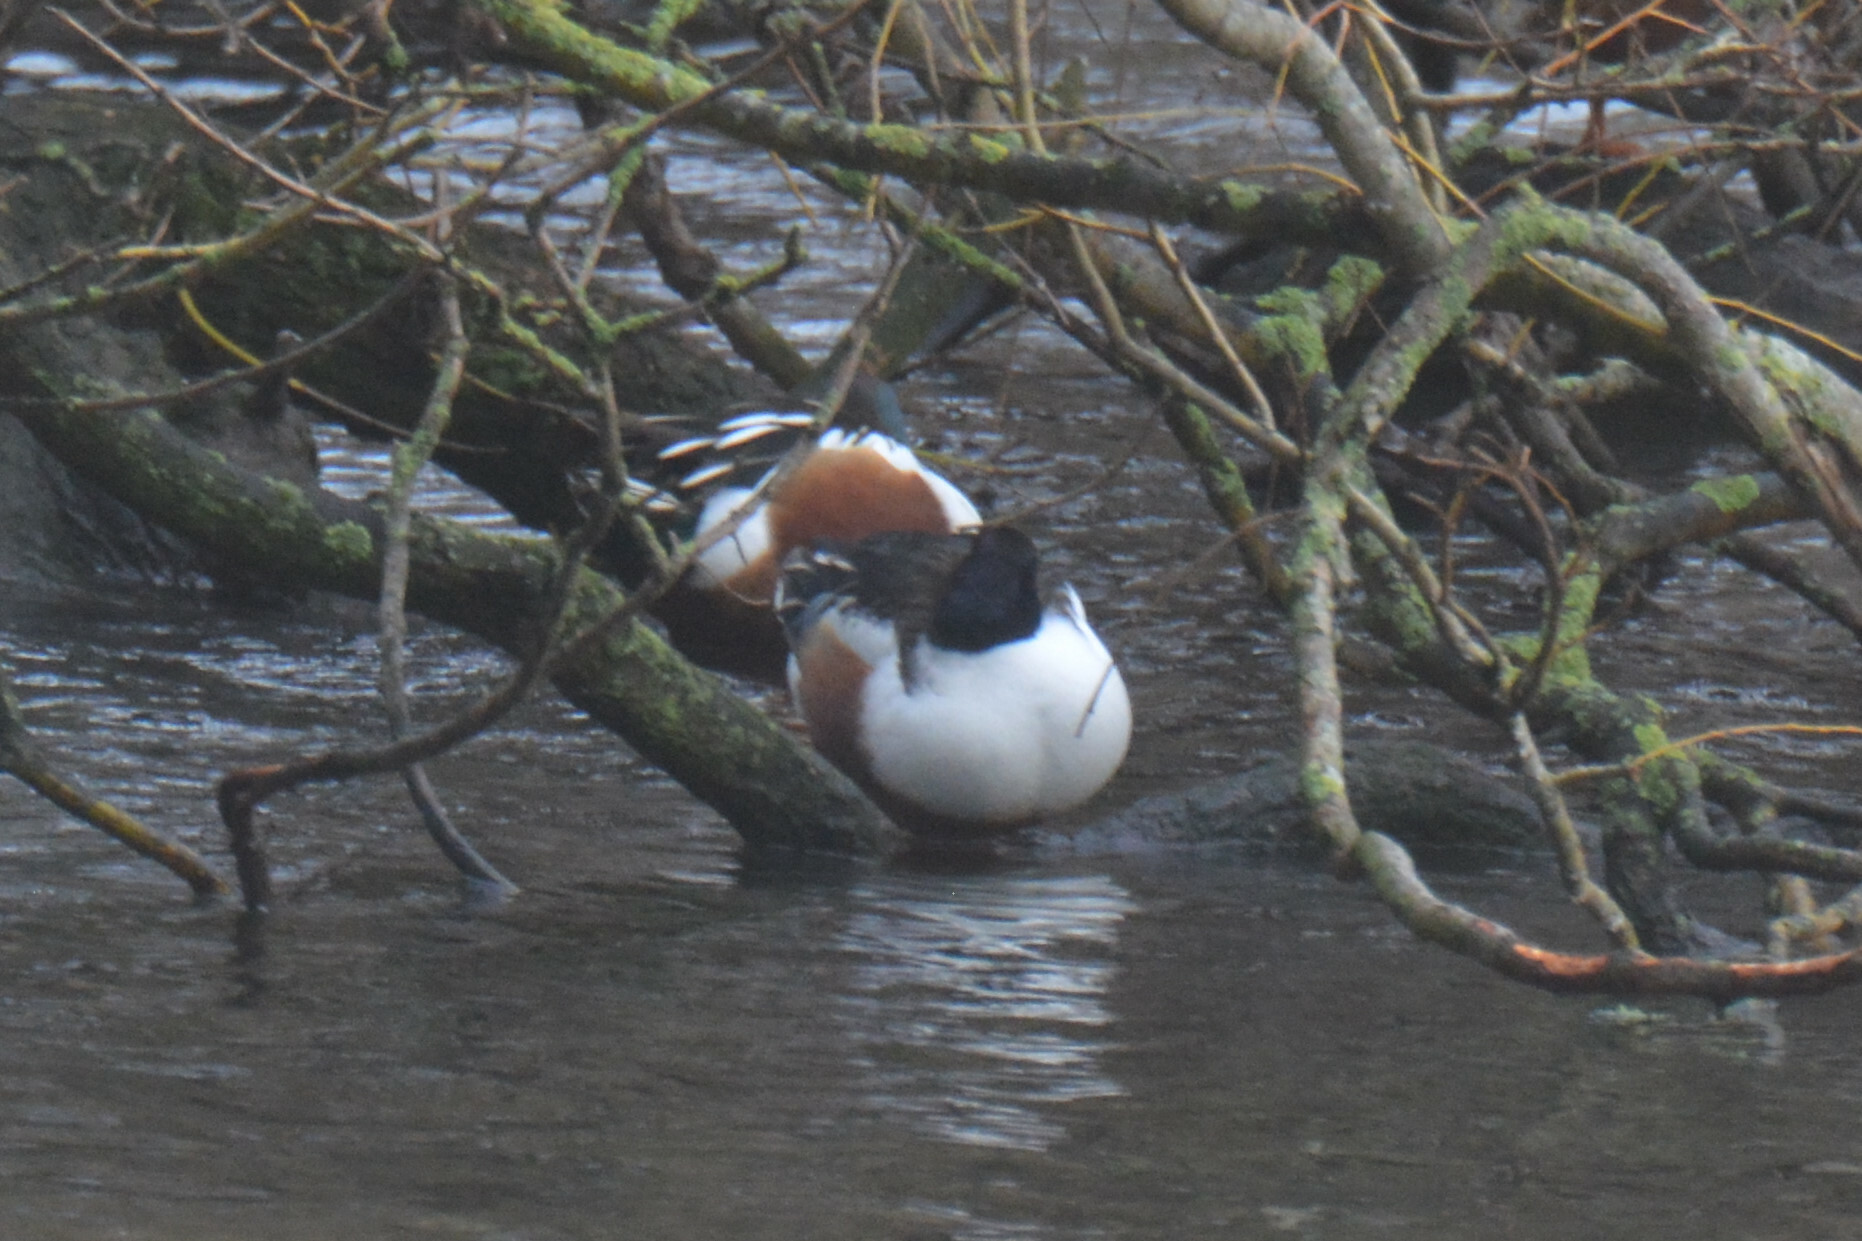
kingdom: Animalia
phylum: Chordata
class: Aves
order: Anseriformes
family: Anatidae
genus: Spatula
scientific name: Spatula clypeata
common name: Northern shoveler
